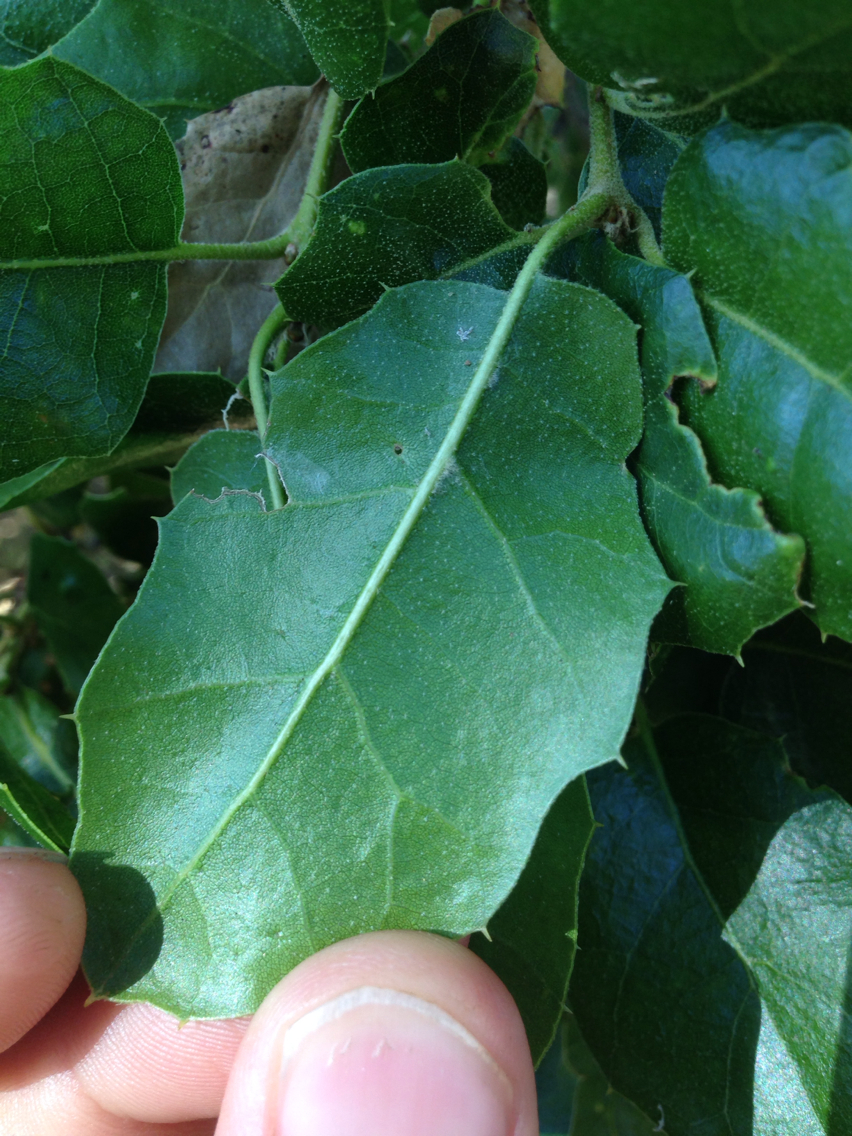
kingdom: Plantae
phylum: Tracheophyta
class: Magnoliopsida
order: Fagales
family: Fagaceae
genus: Quercus
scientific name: Quercus agrifolia
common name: California live oak
